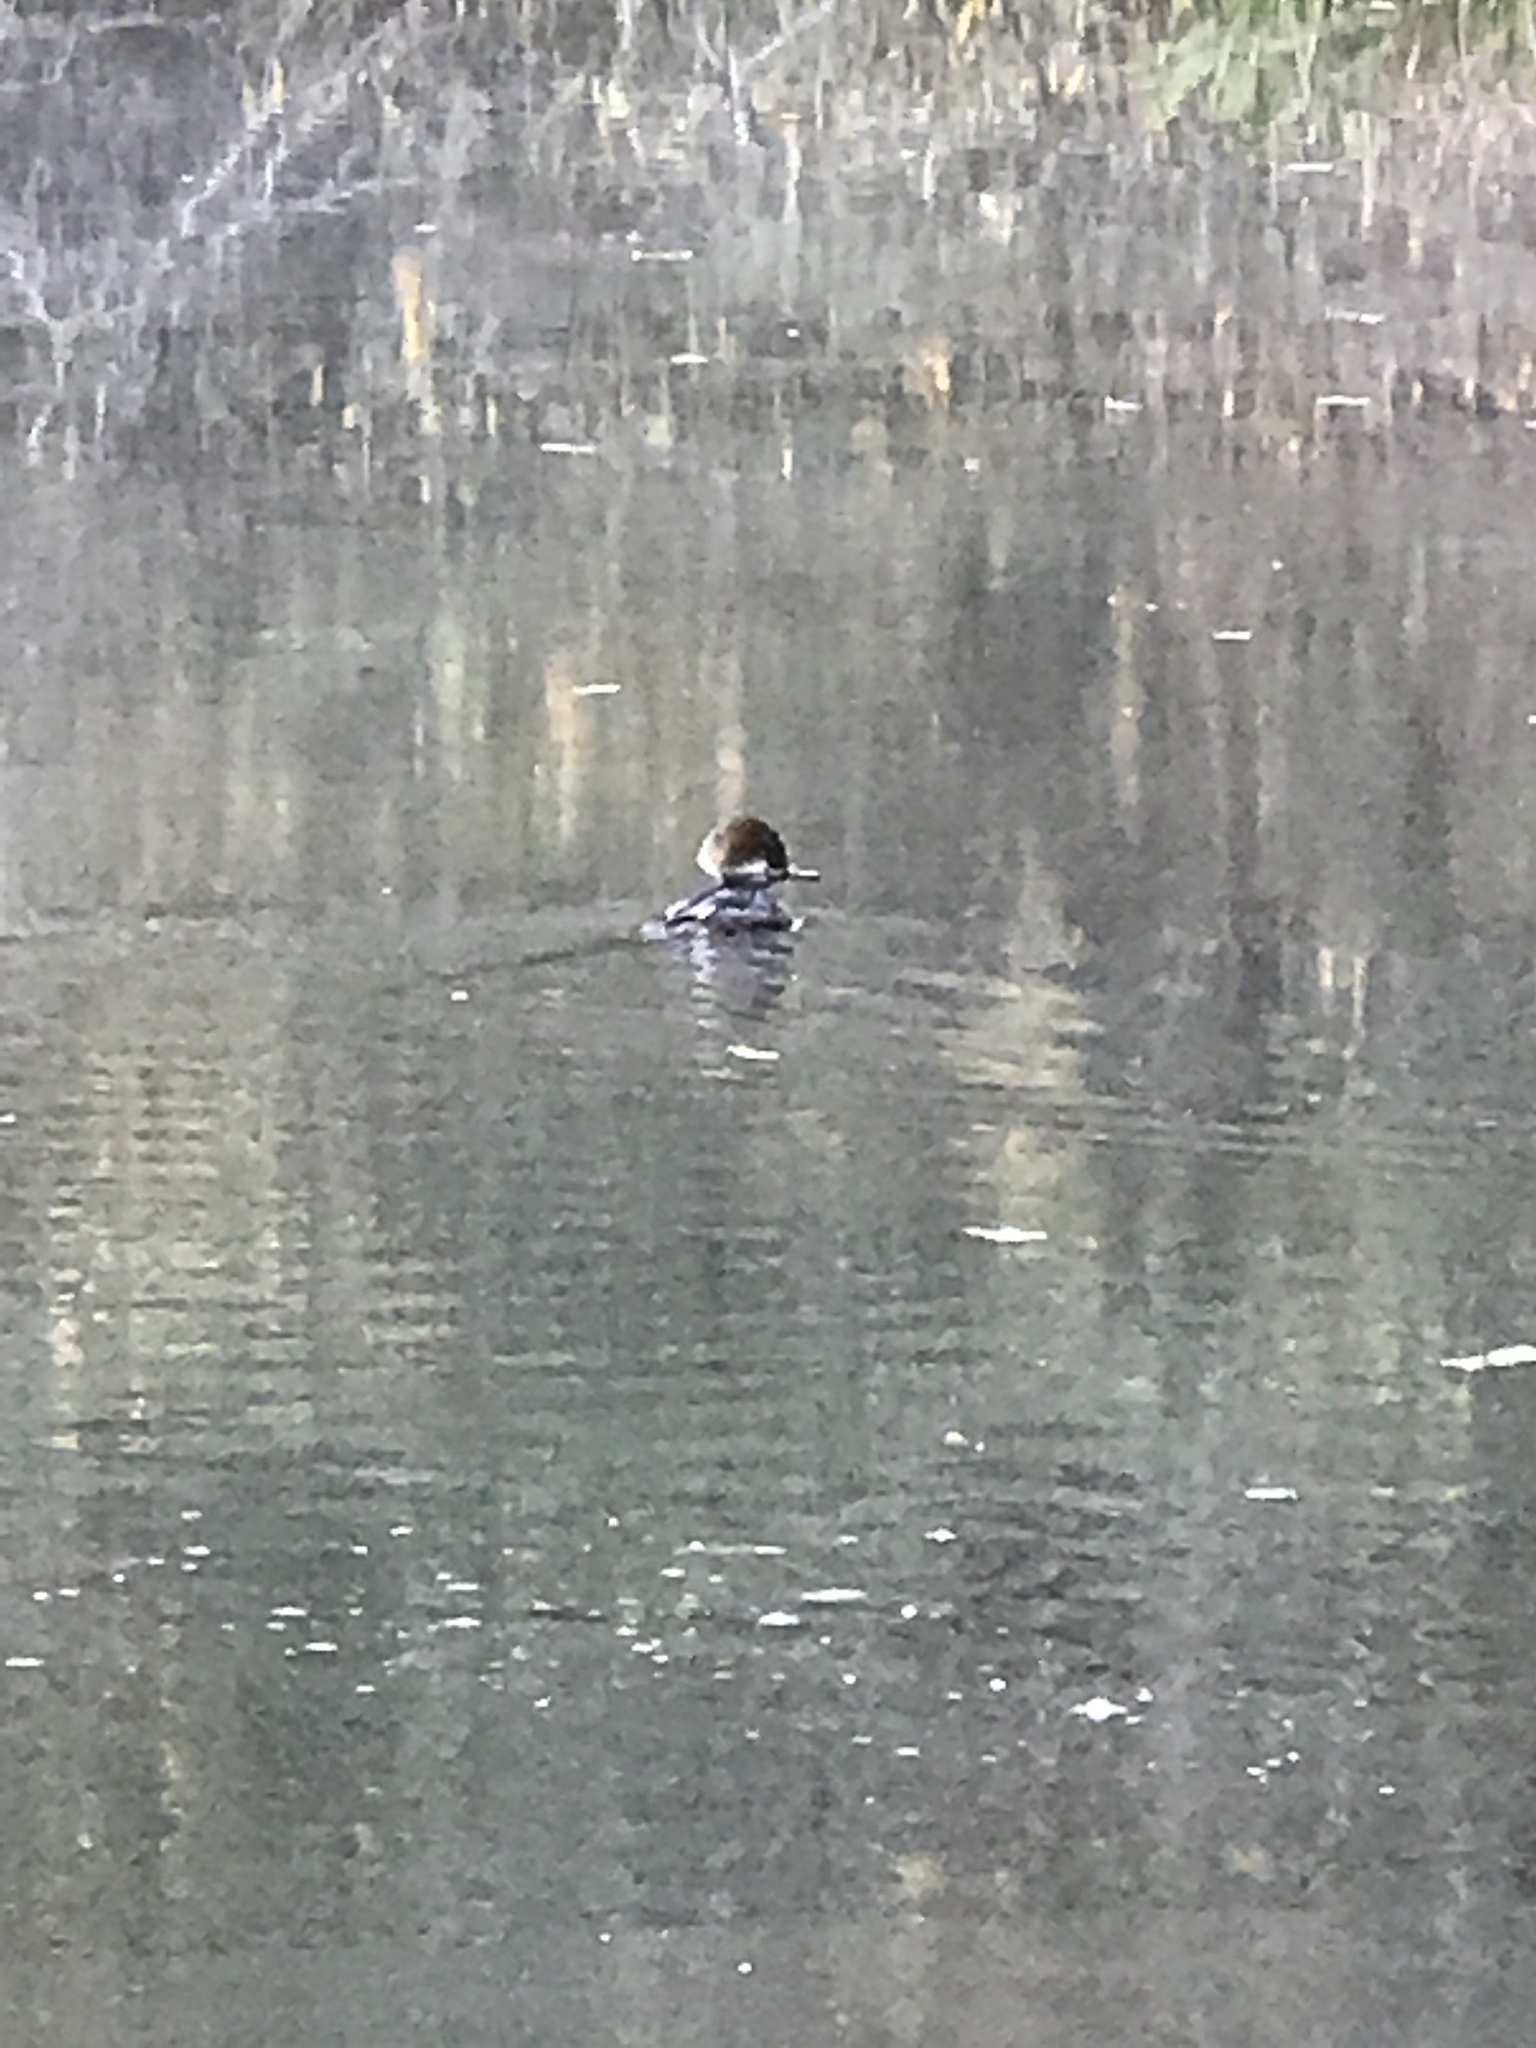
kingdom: Animalia
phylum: Chordata
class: Aves
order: Anseriformes
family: Anatidae
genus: Lophodytes
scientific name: Lophodytes cucullatus
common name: Hooded merganser
